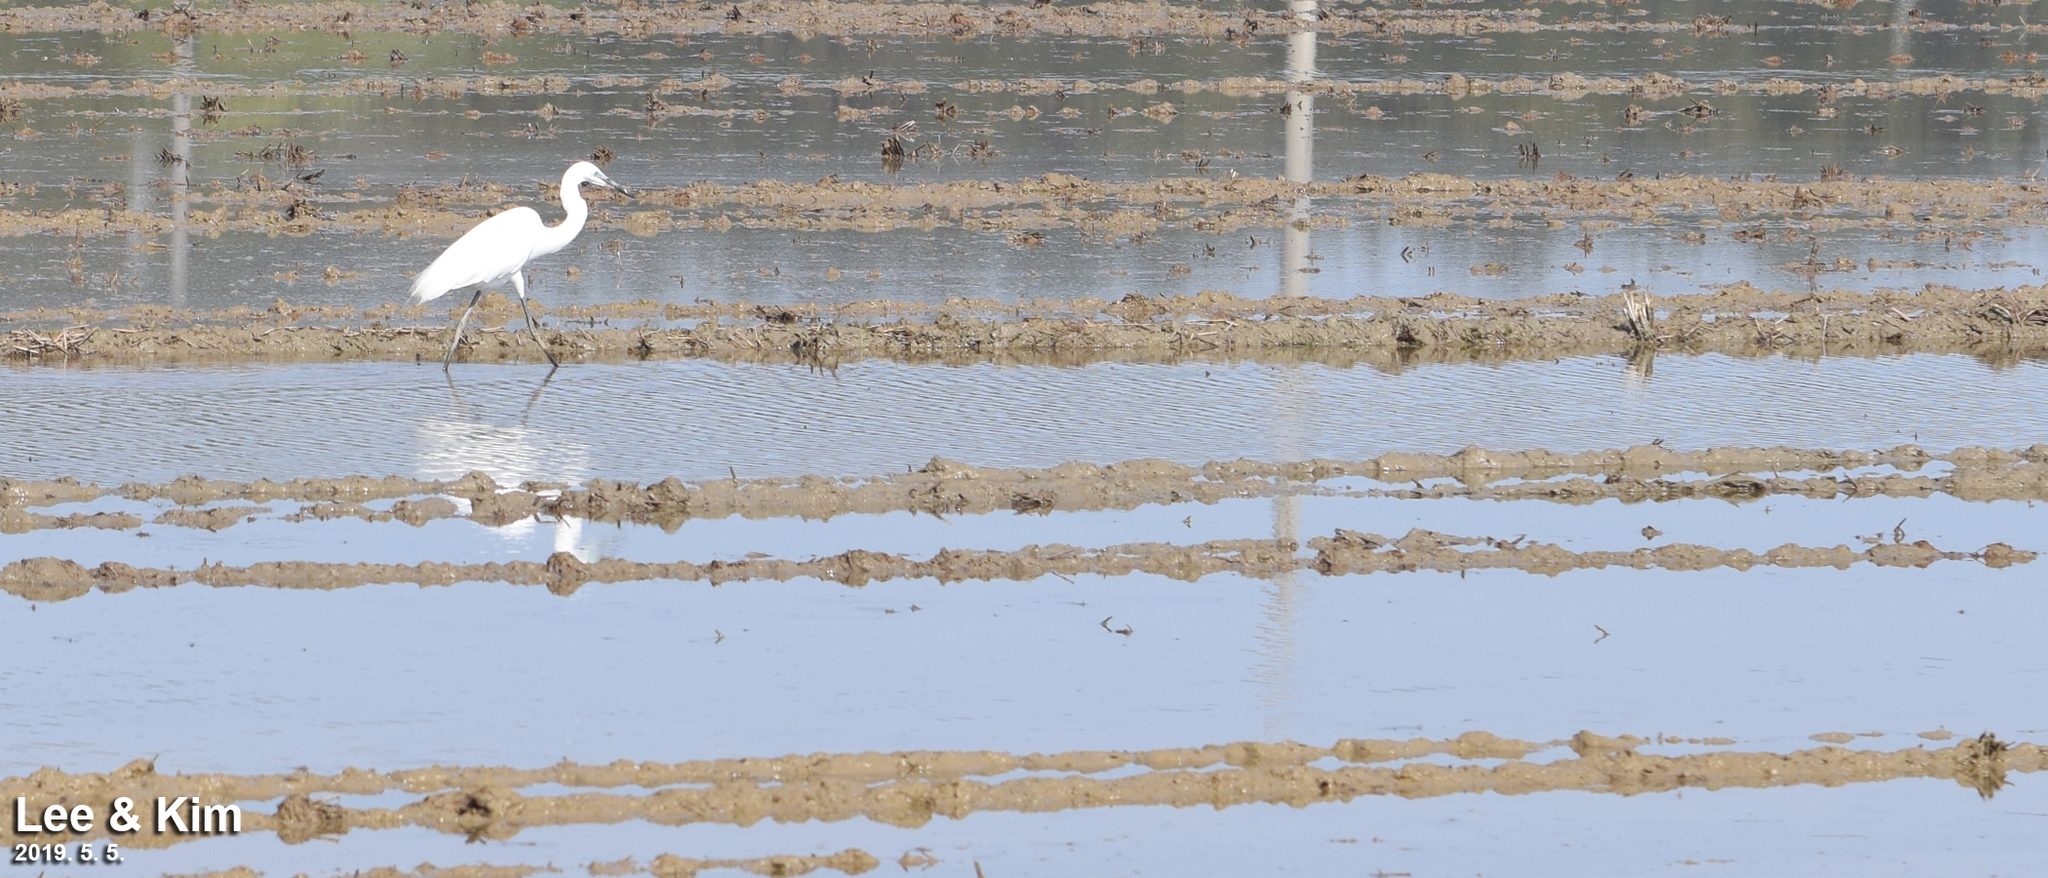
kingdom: Animalia
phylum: Chordata
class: Aves
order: Pelecaniformes
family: Ardeidae
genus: Ardea
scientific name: Ardea alba
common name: Great egret
